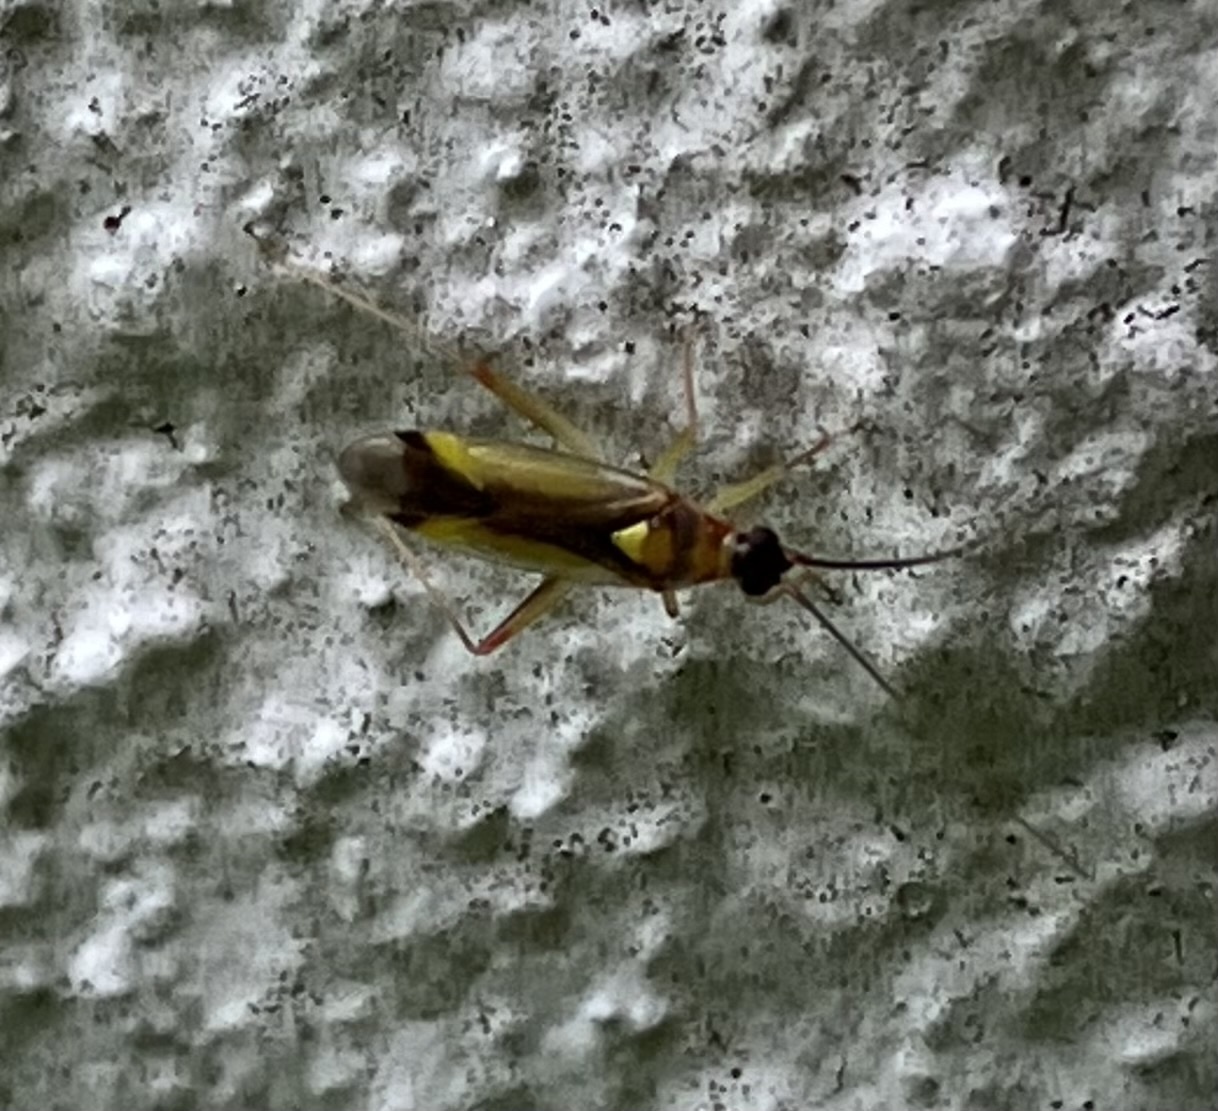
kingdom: Animalia
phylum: Arthropoda
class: Insecta
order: Hemiptera
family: Miridae
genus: Campyloneura
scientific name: Campyloneura virgula
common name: Predatory bug
